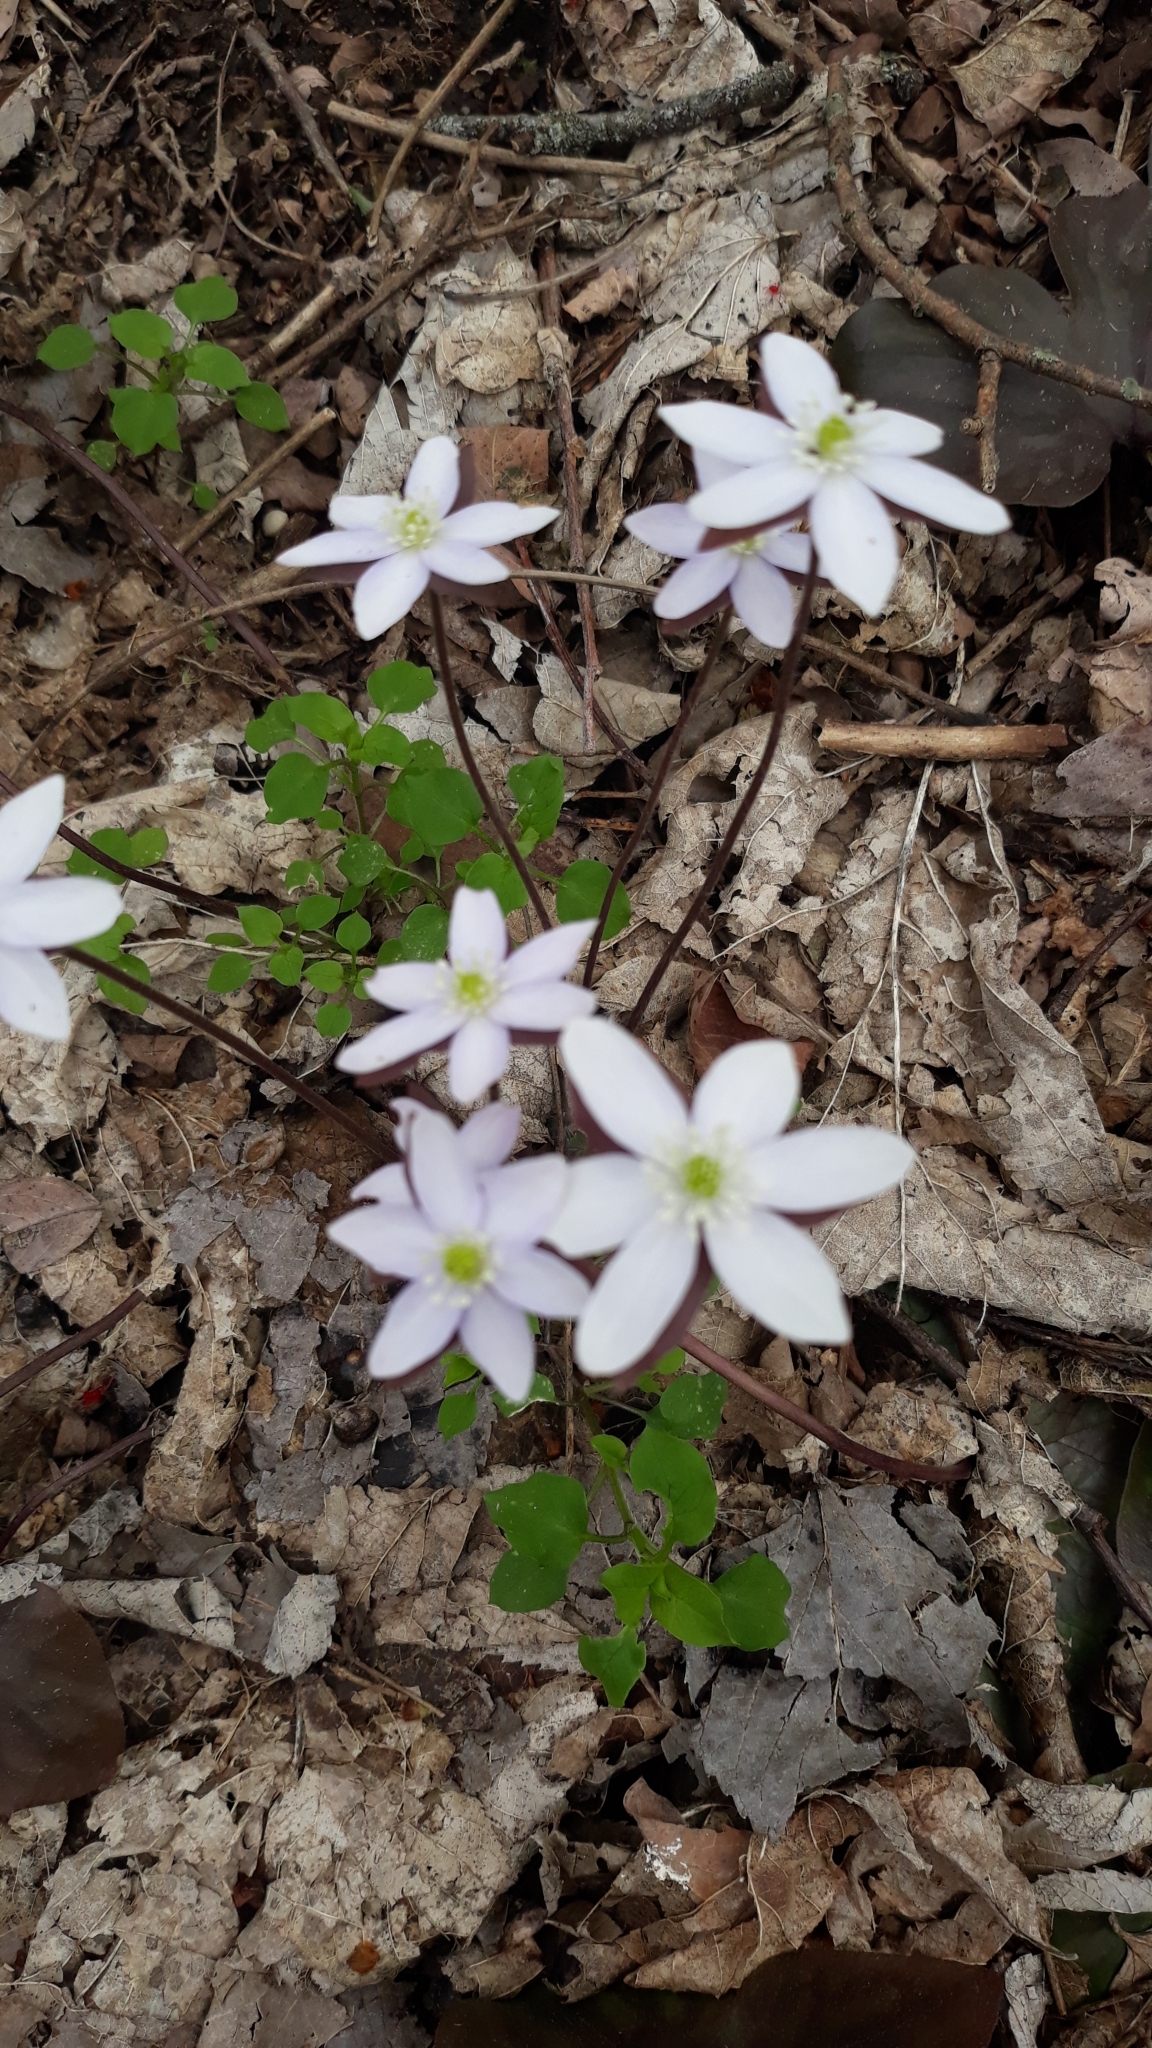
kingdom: Plantae
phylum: Tracheophyta
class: Magnoliopsida
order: Ranunculales
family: Ranunculaceae
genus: Thalictrum
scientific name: Thalictrum thalictroides
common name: Rue-anemone
